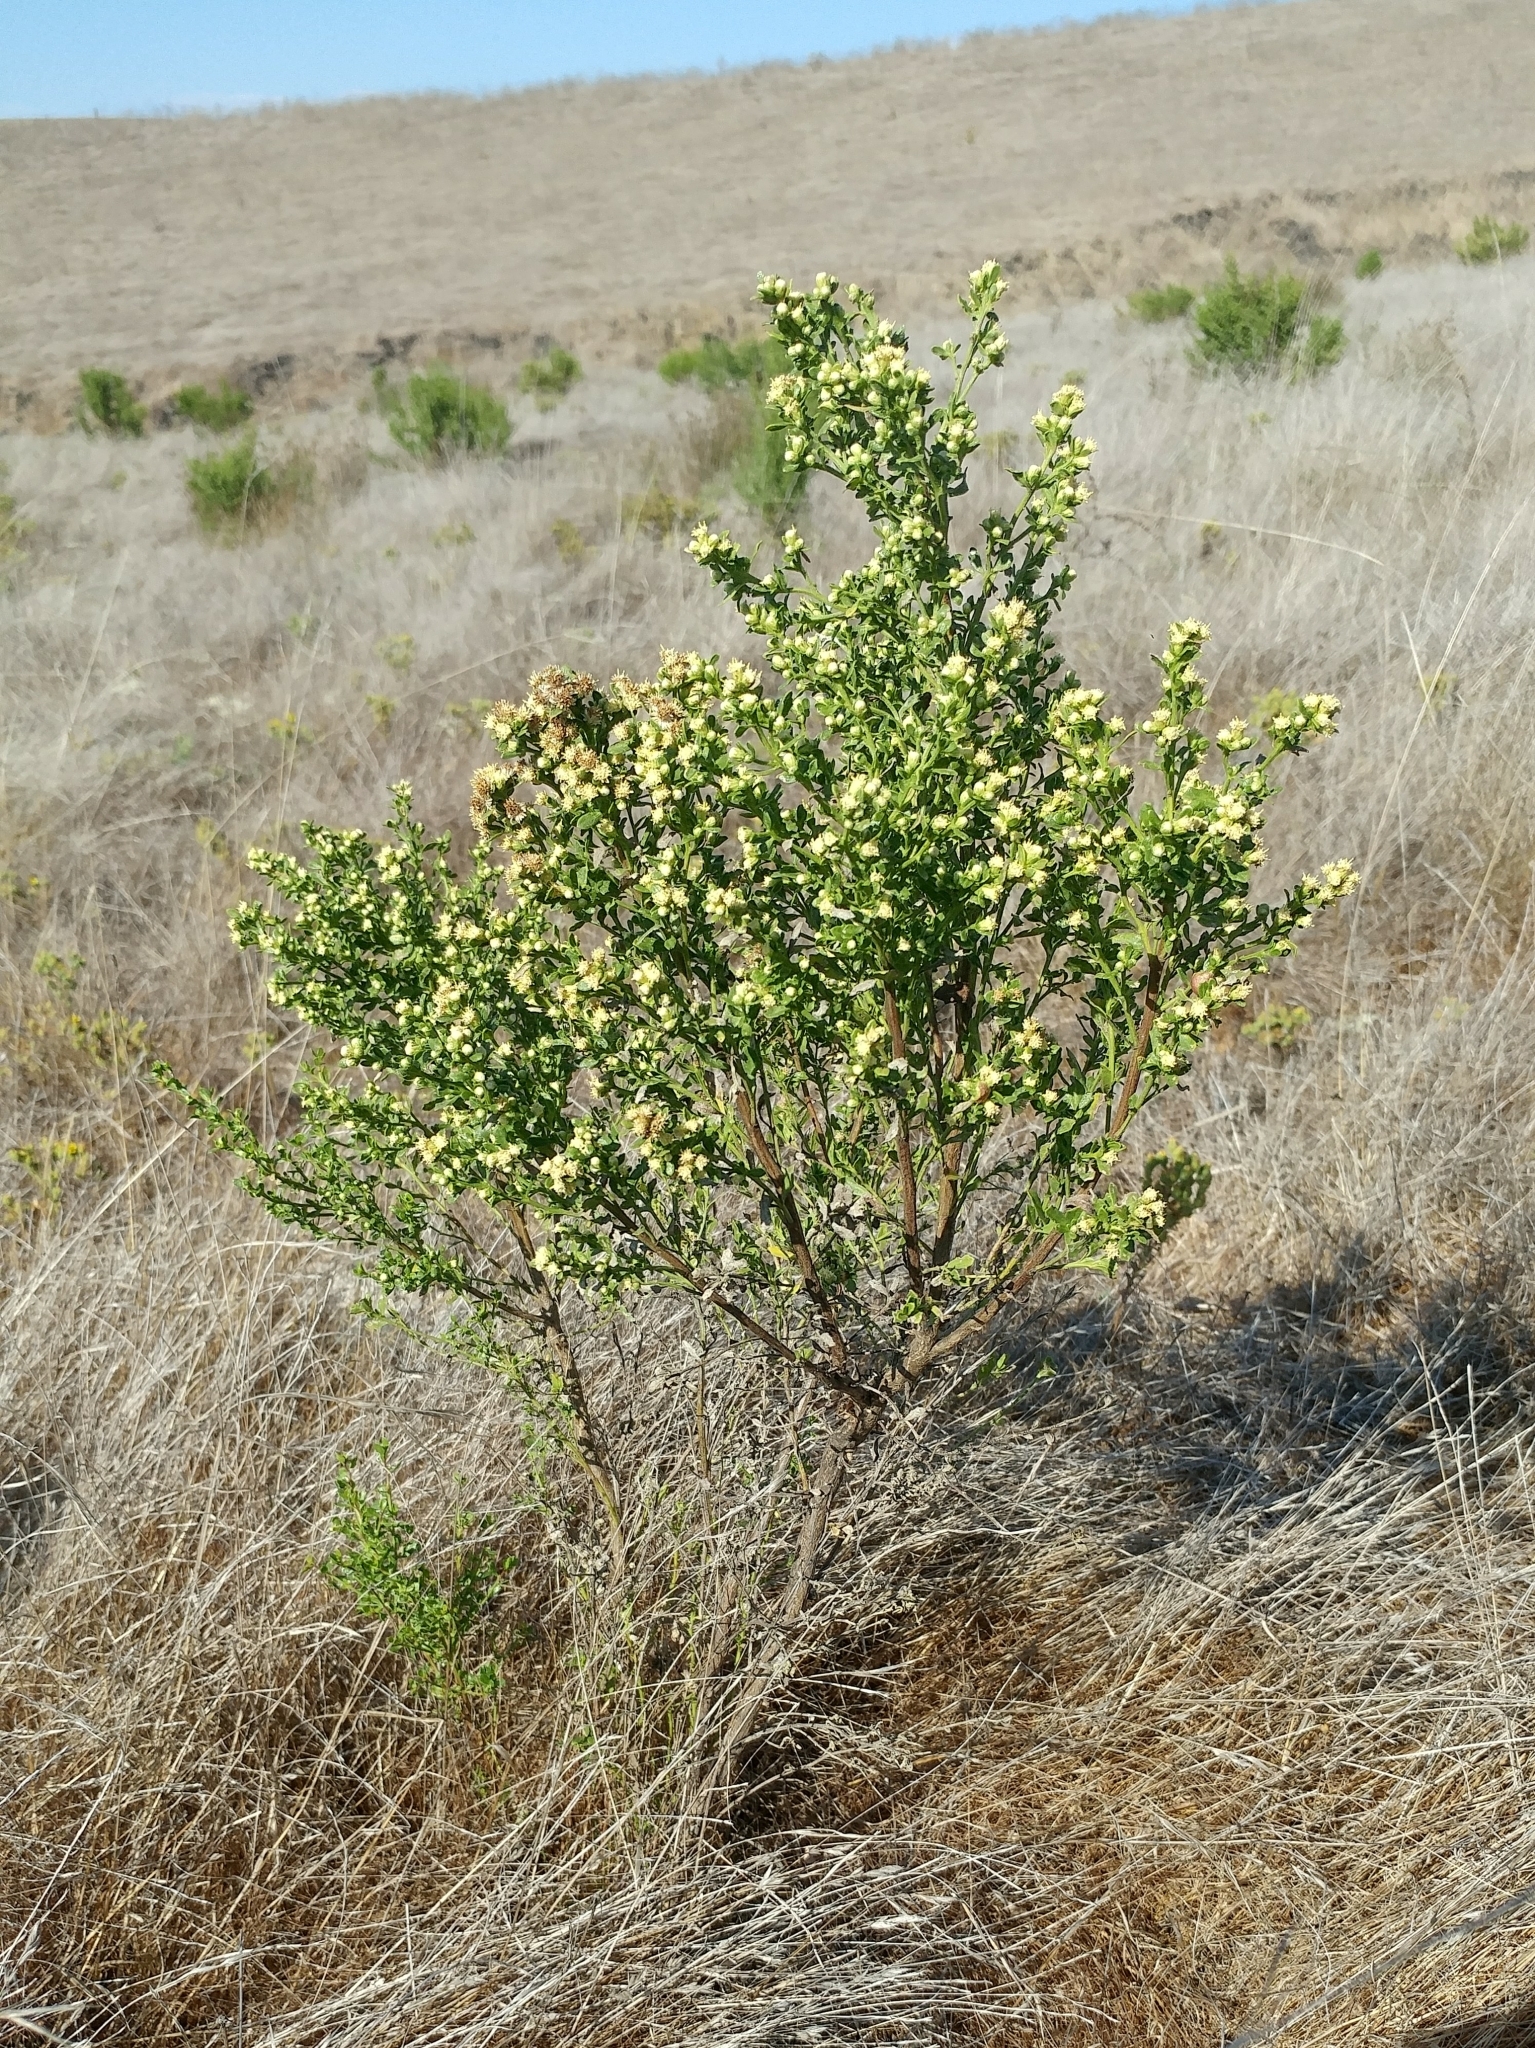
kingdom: Plantae
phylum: Tracheophyta
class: Magnoliopsida
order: Asterales
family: Asteraceae
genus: Baccharis
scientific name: Baccharis pilularis
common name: Coyotebrush
